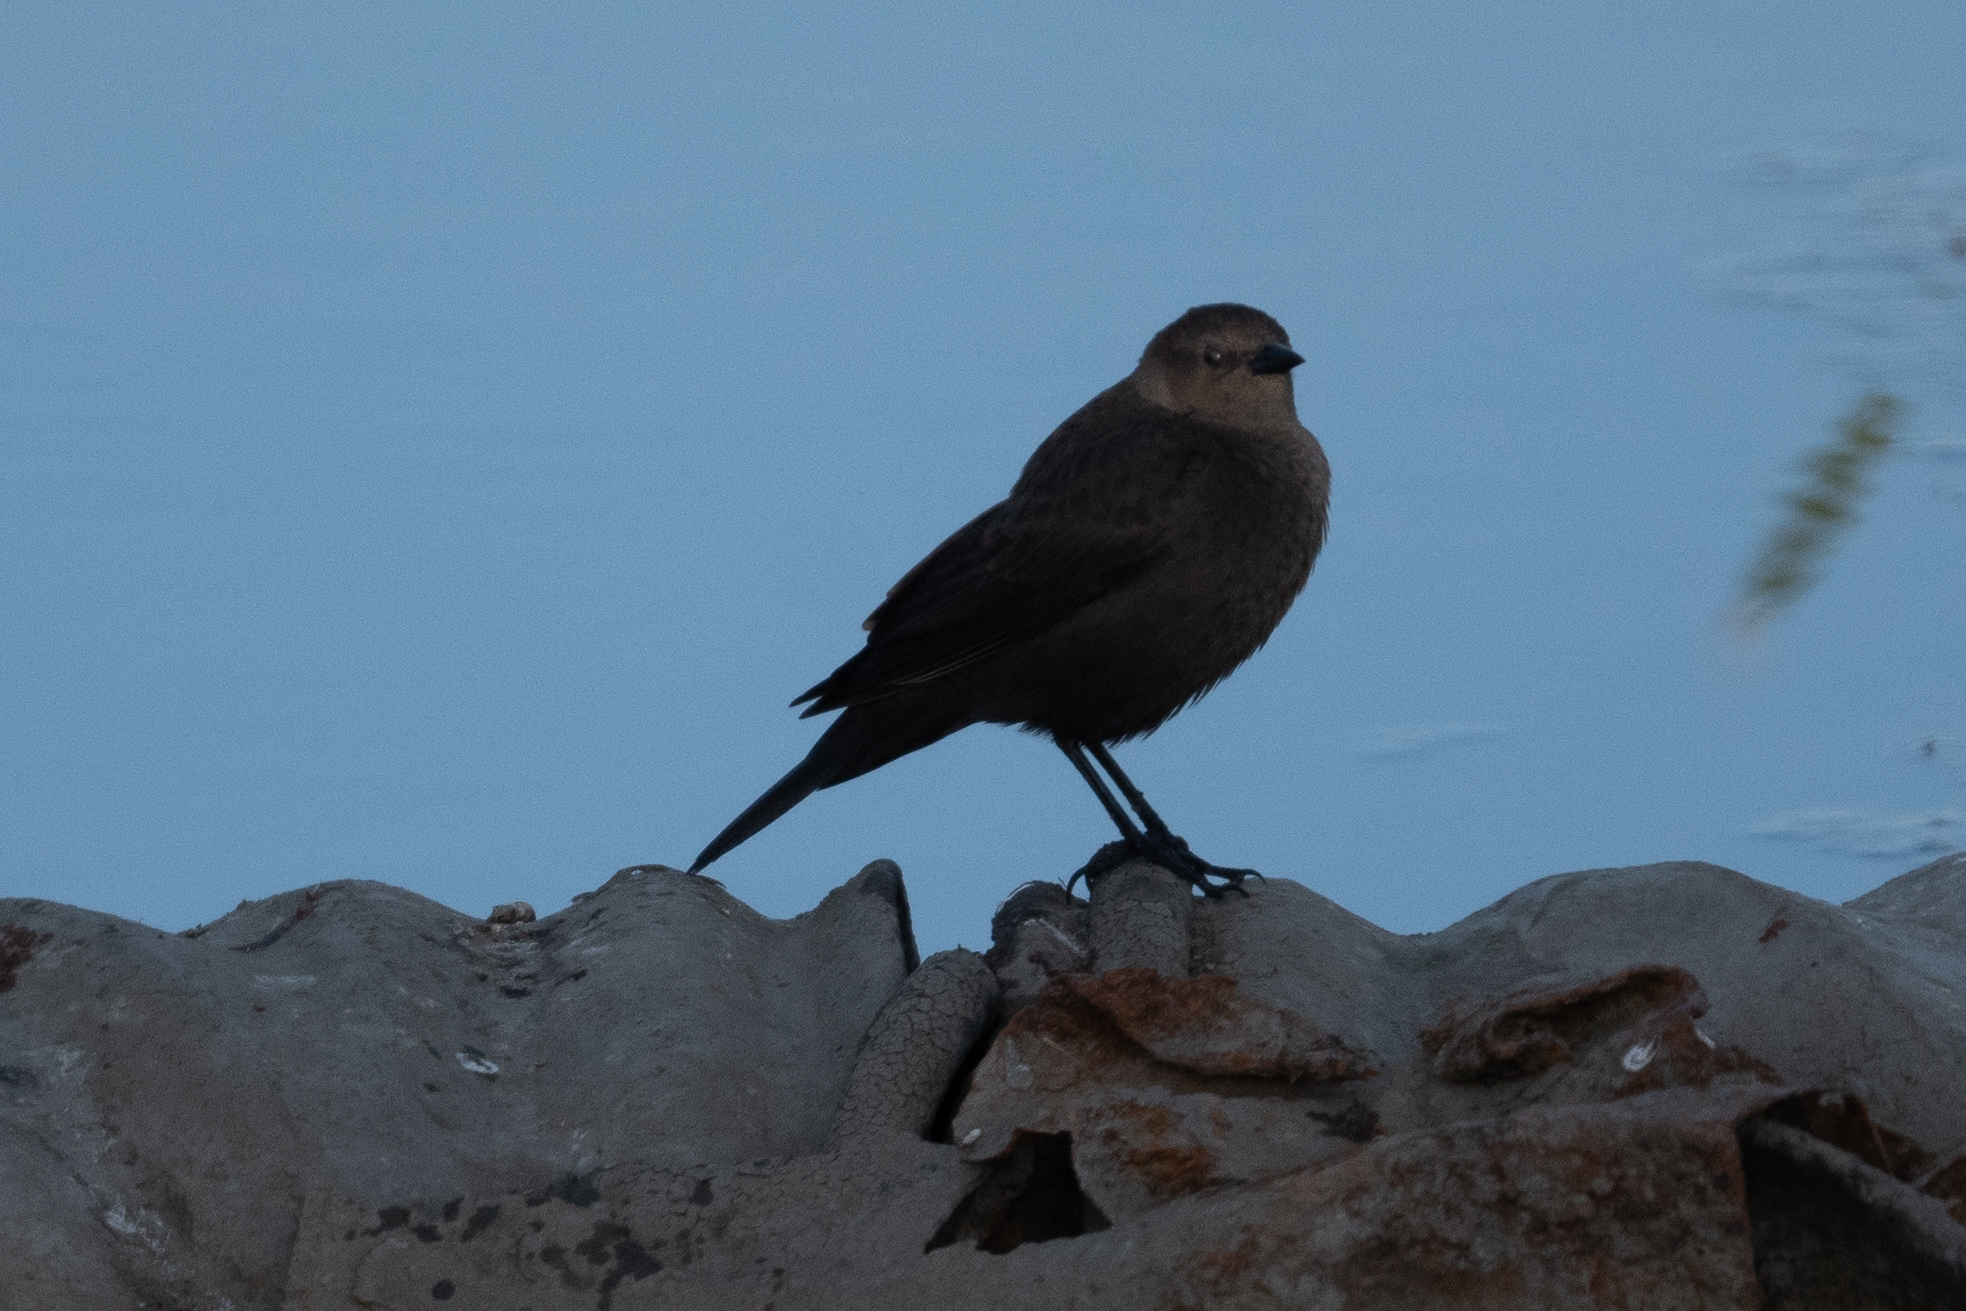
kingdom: Animalia
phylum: Chordata
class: Aves
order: Passeriformes
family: Icteridae
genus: Euphagus
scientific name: Euphagus cyanocephalus
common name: Brewer's blackbird
